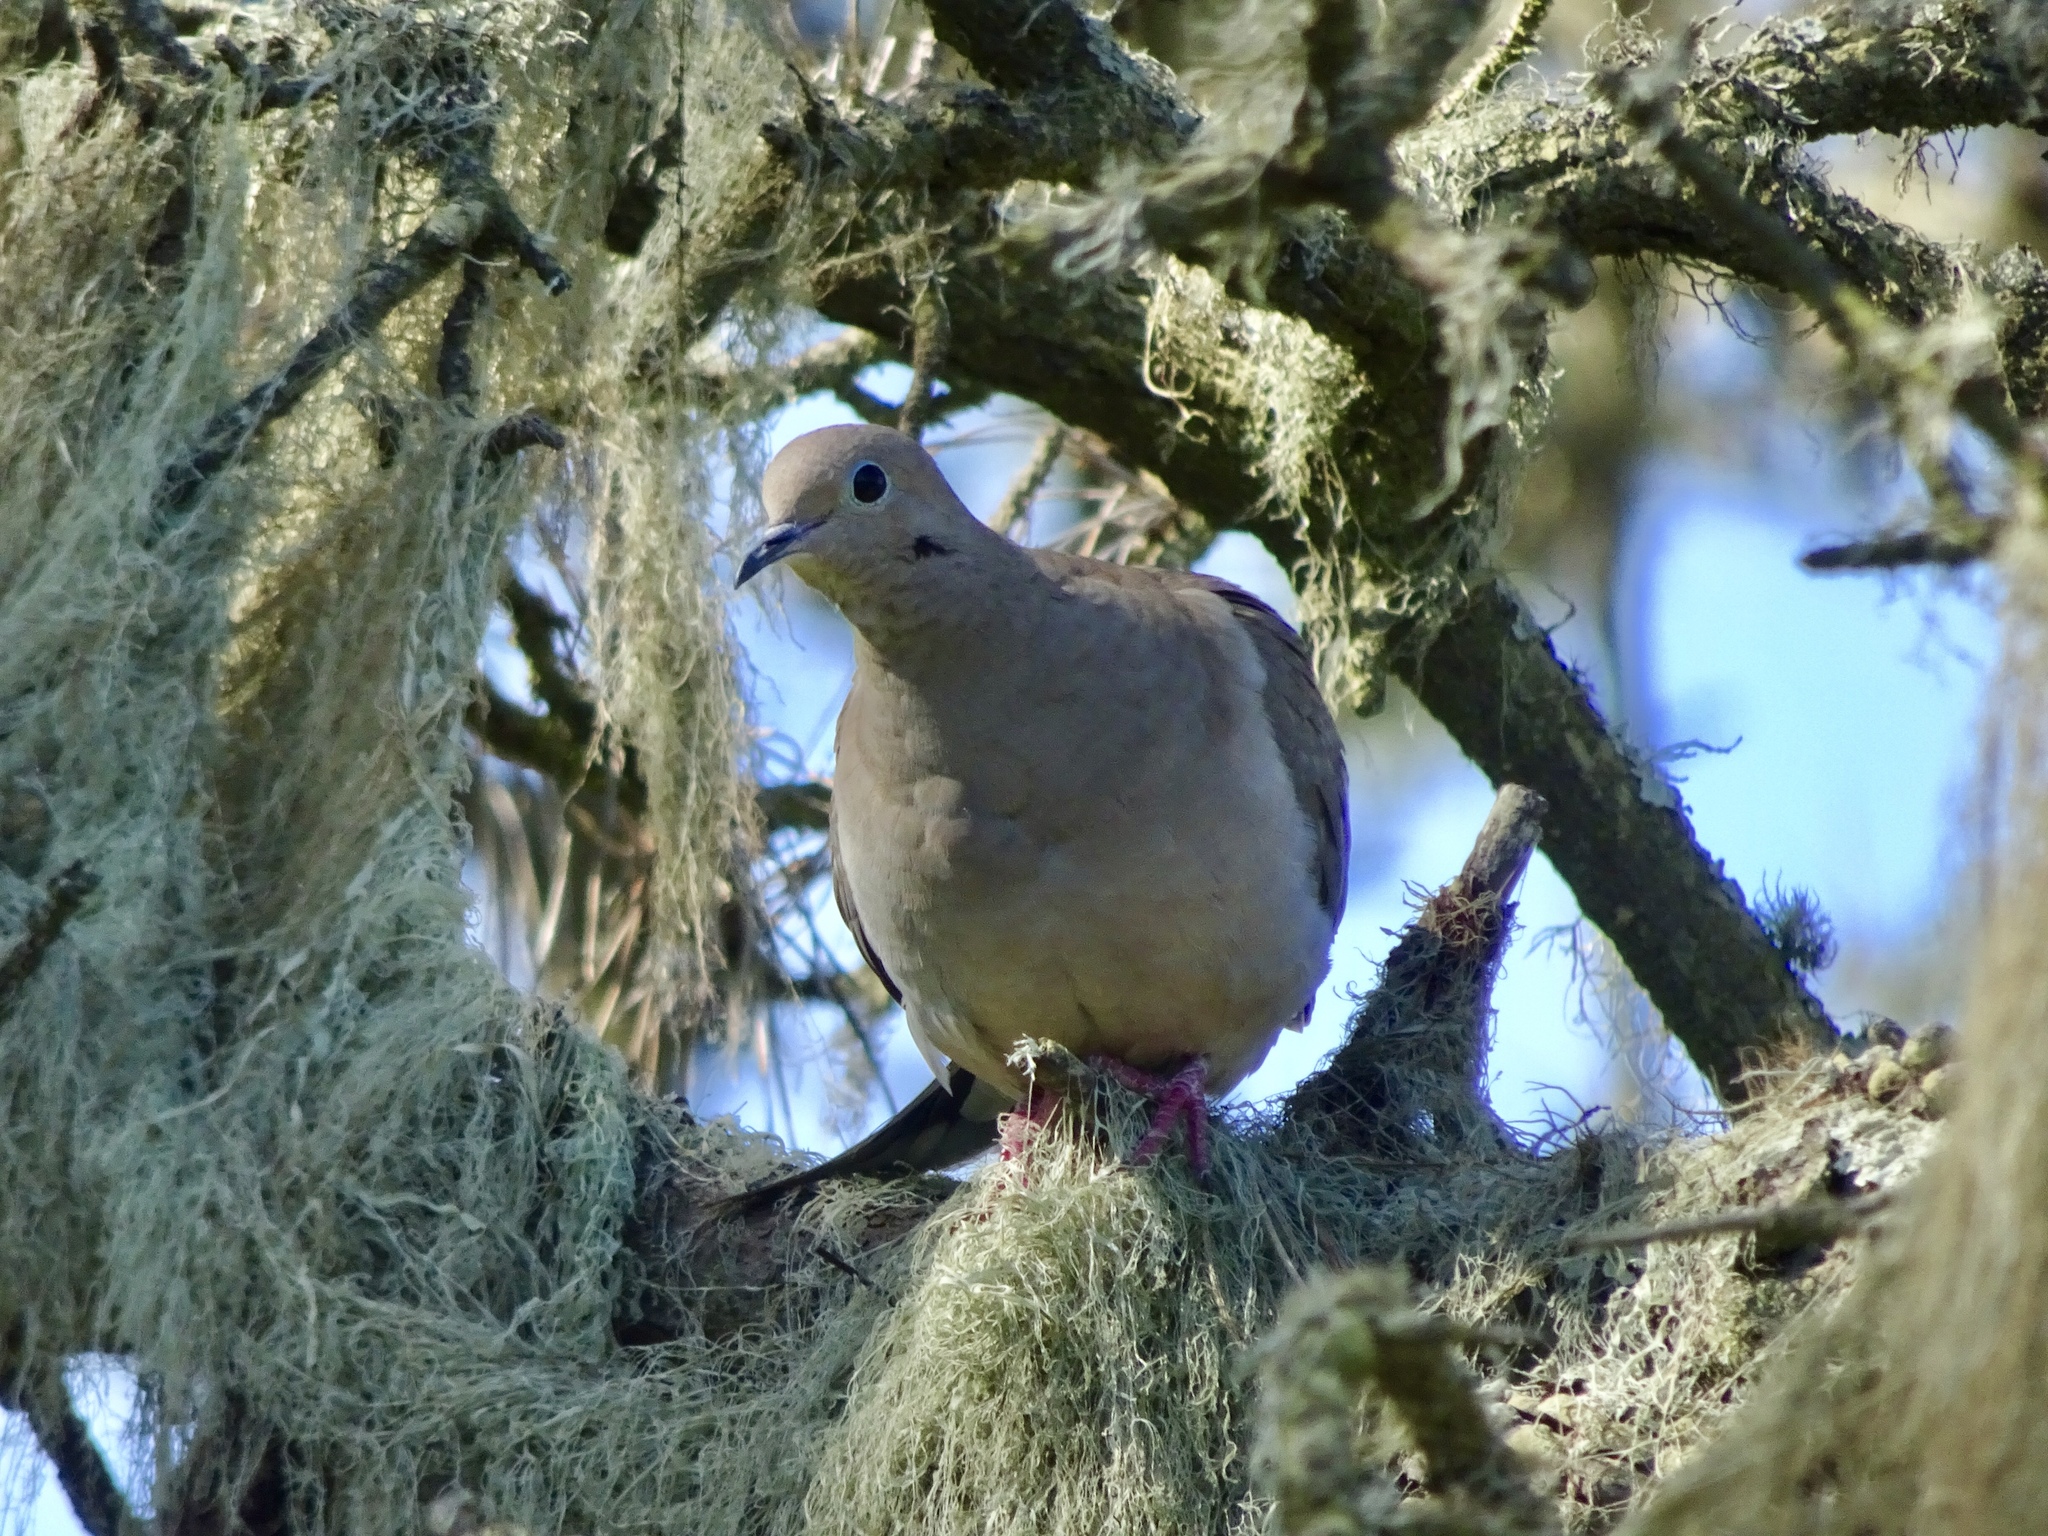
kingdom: Animalia
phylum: Chordata
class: Aves
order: Columbiformes
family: Columbidae
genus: Zenaida
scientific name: Zenaida macroura
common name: Mourning dove
